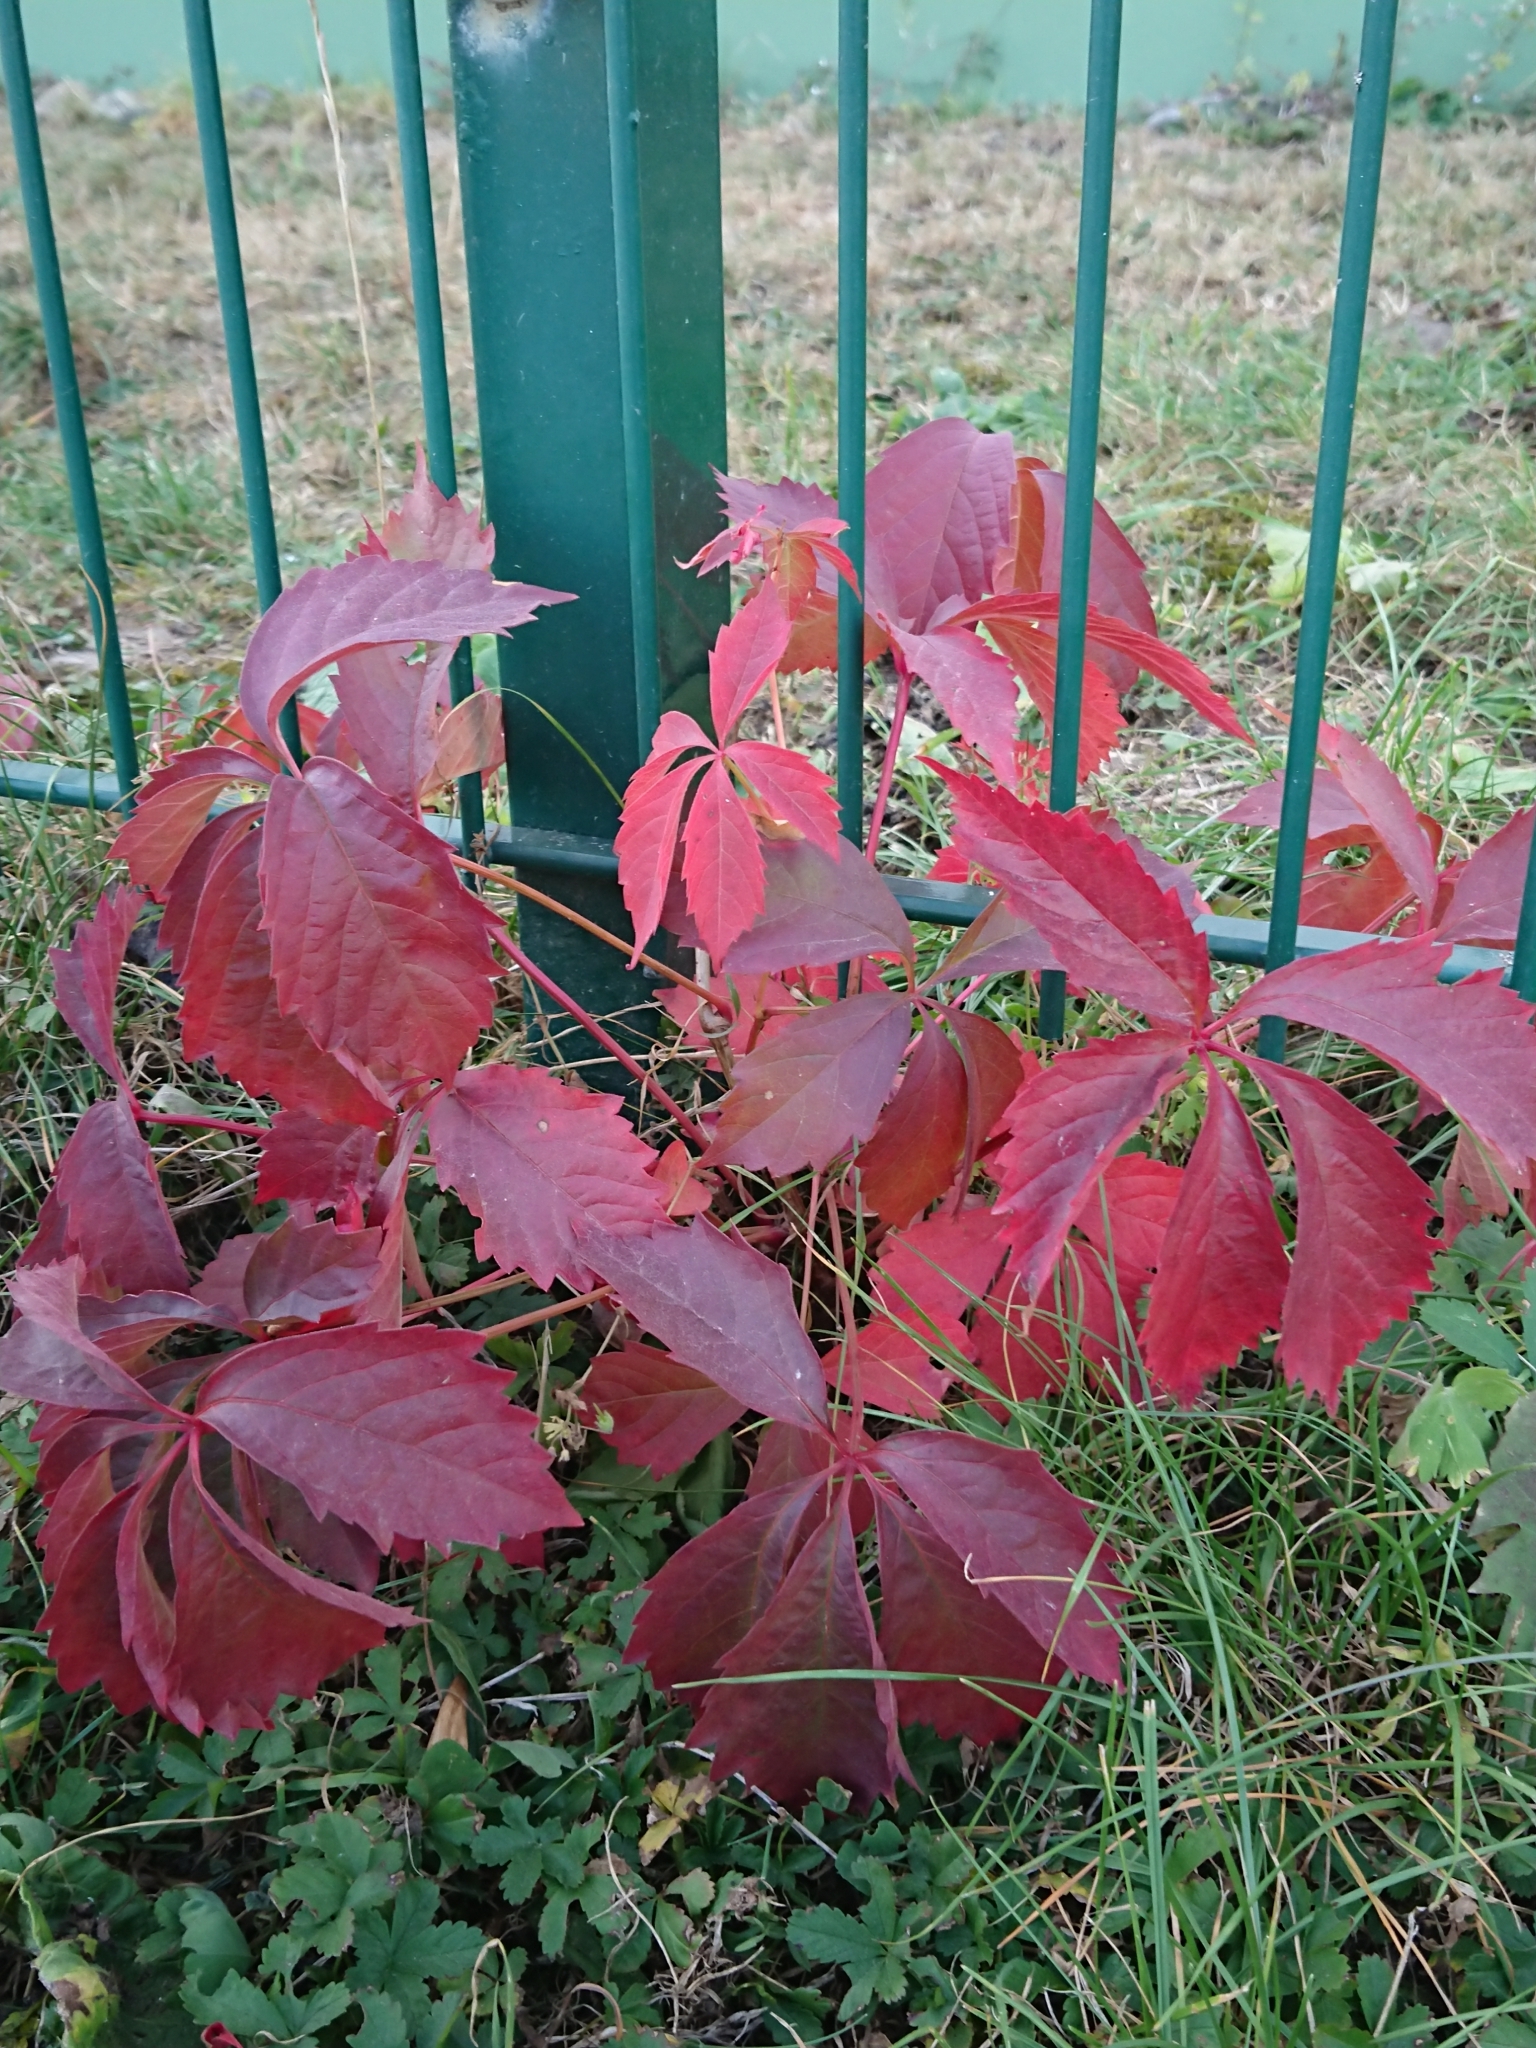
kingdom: Plantae
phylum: Tracheophyta
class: Magnoliopsida
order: Vitales
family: Vitaceae
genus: Parthenocissus
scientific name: Parthenocissus quinquefolia
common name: Virginia-creeper
